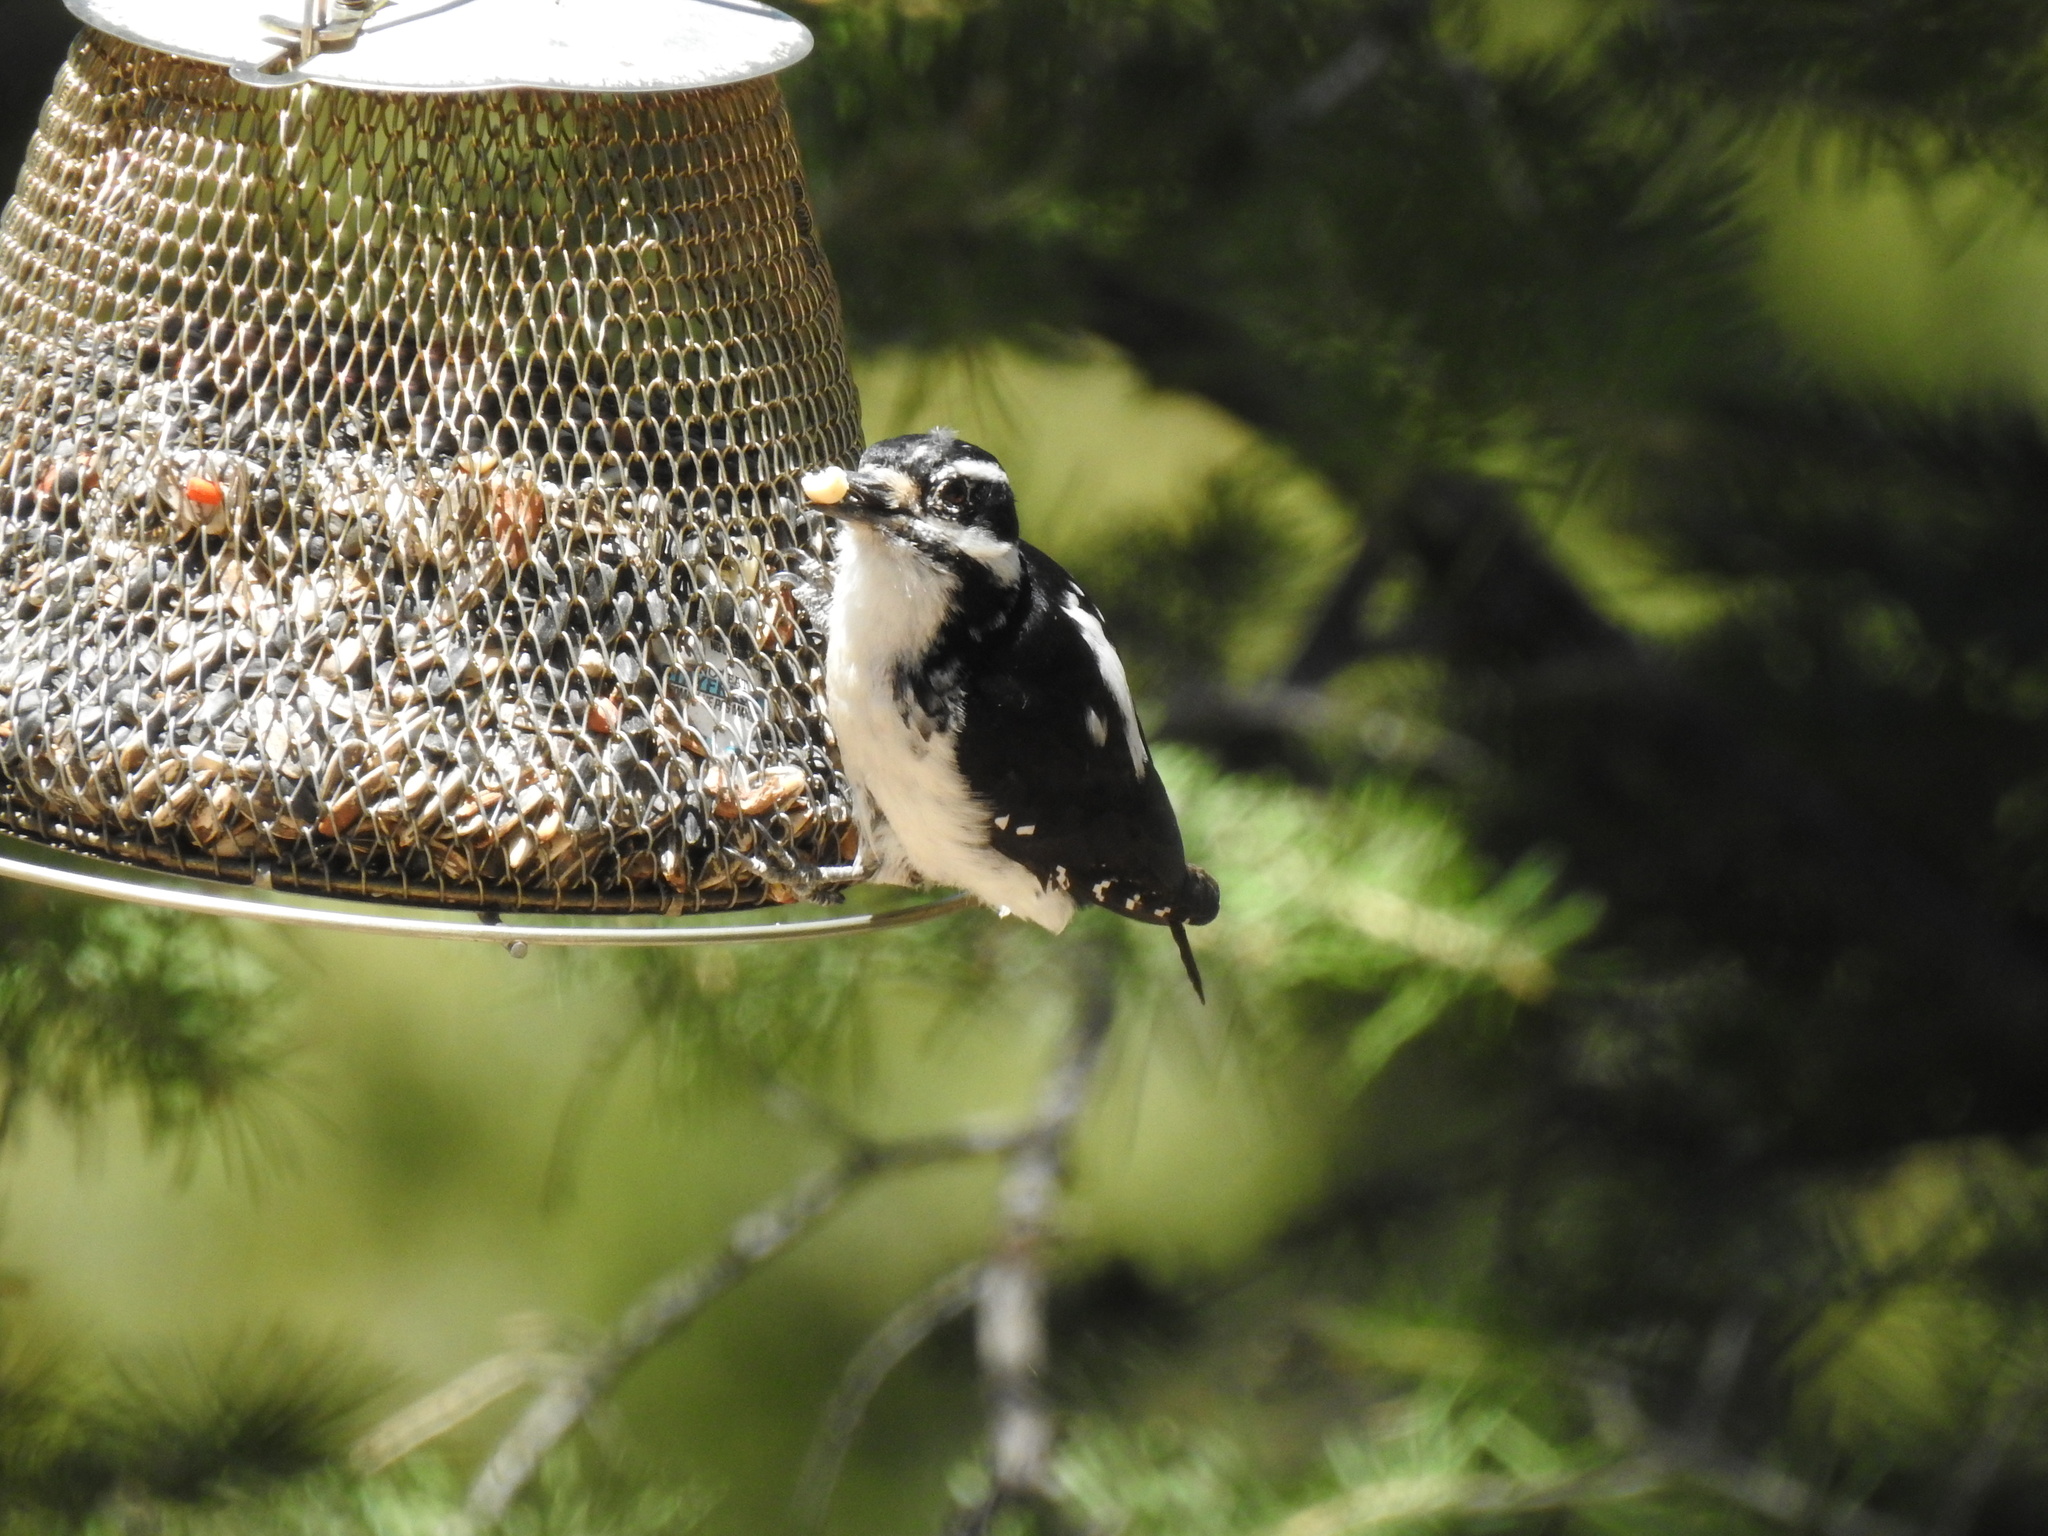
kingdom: Animalia
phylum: Chordata
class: Aves
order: Piciformes
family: Picidae
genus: Leuconotopicus
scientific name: Leuconotopicus villosus
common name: Hairy woodpecker
